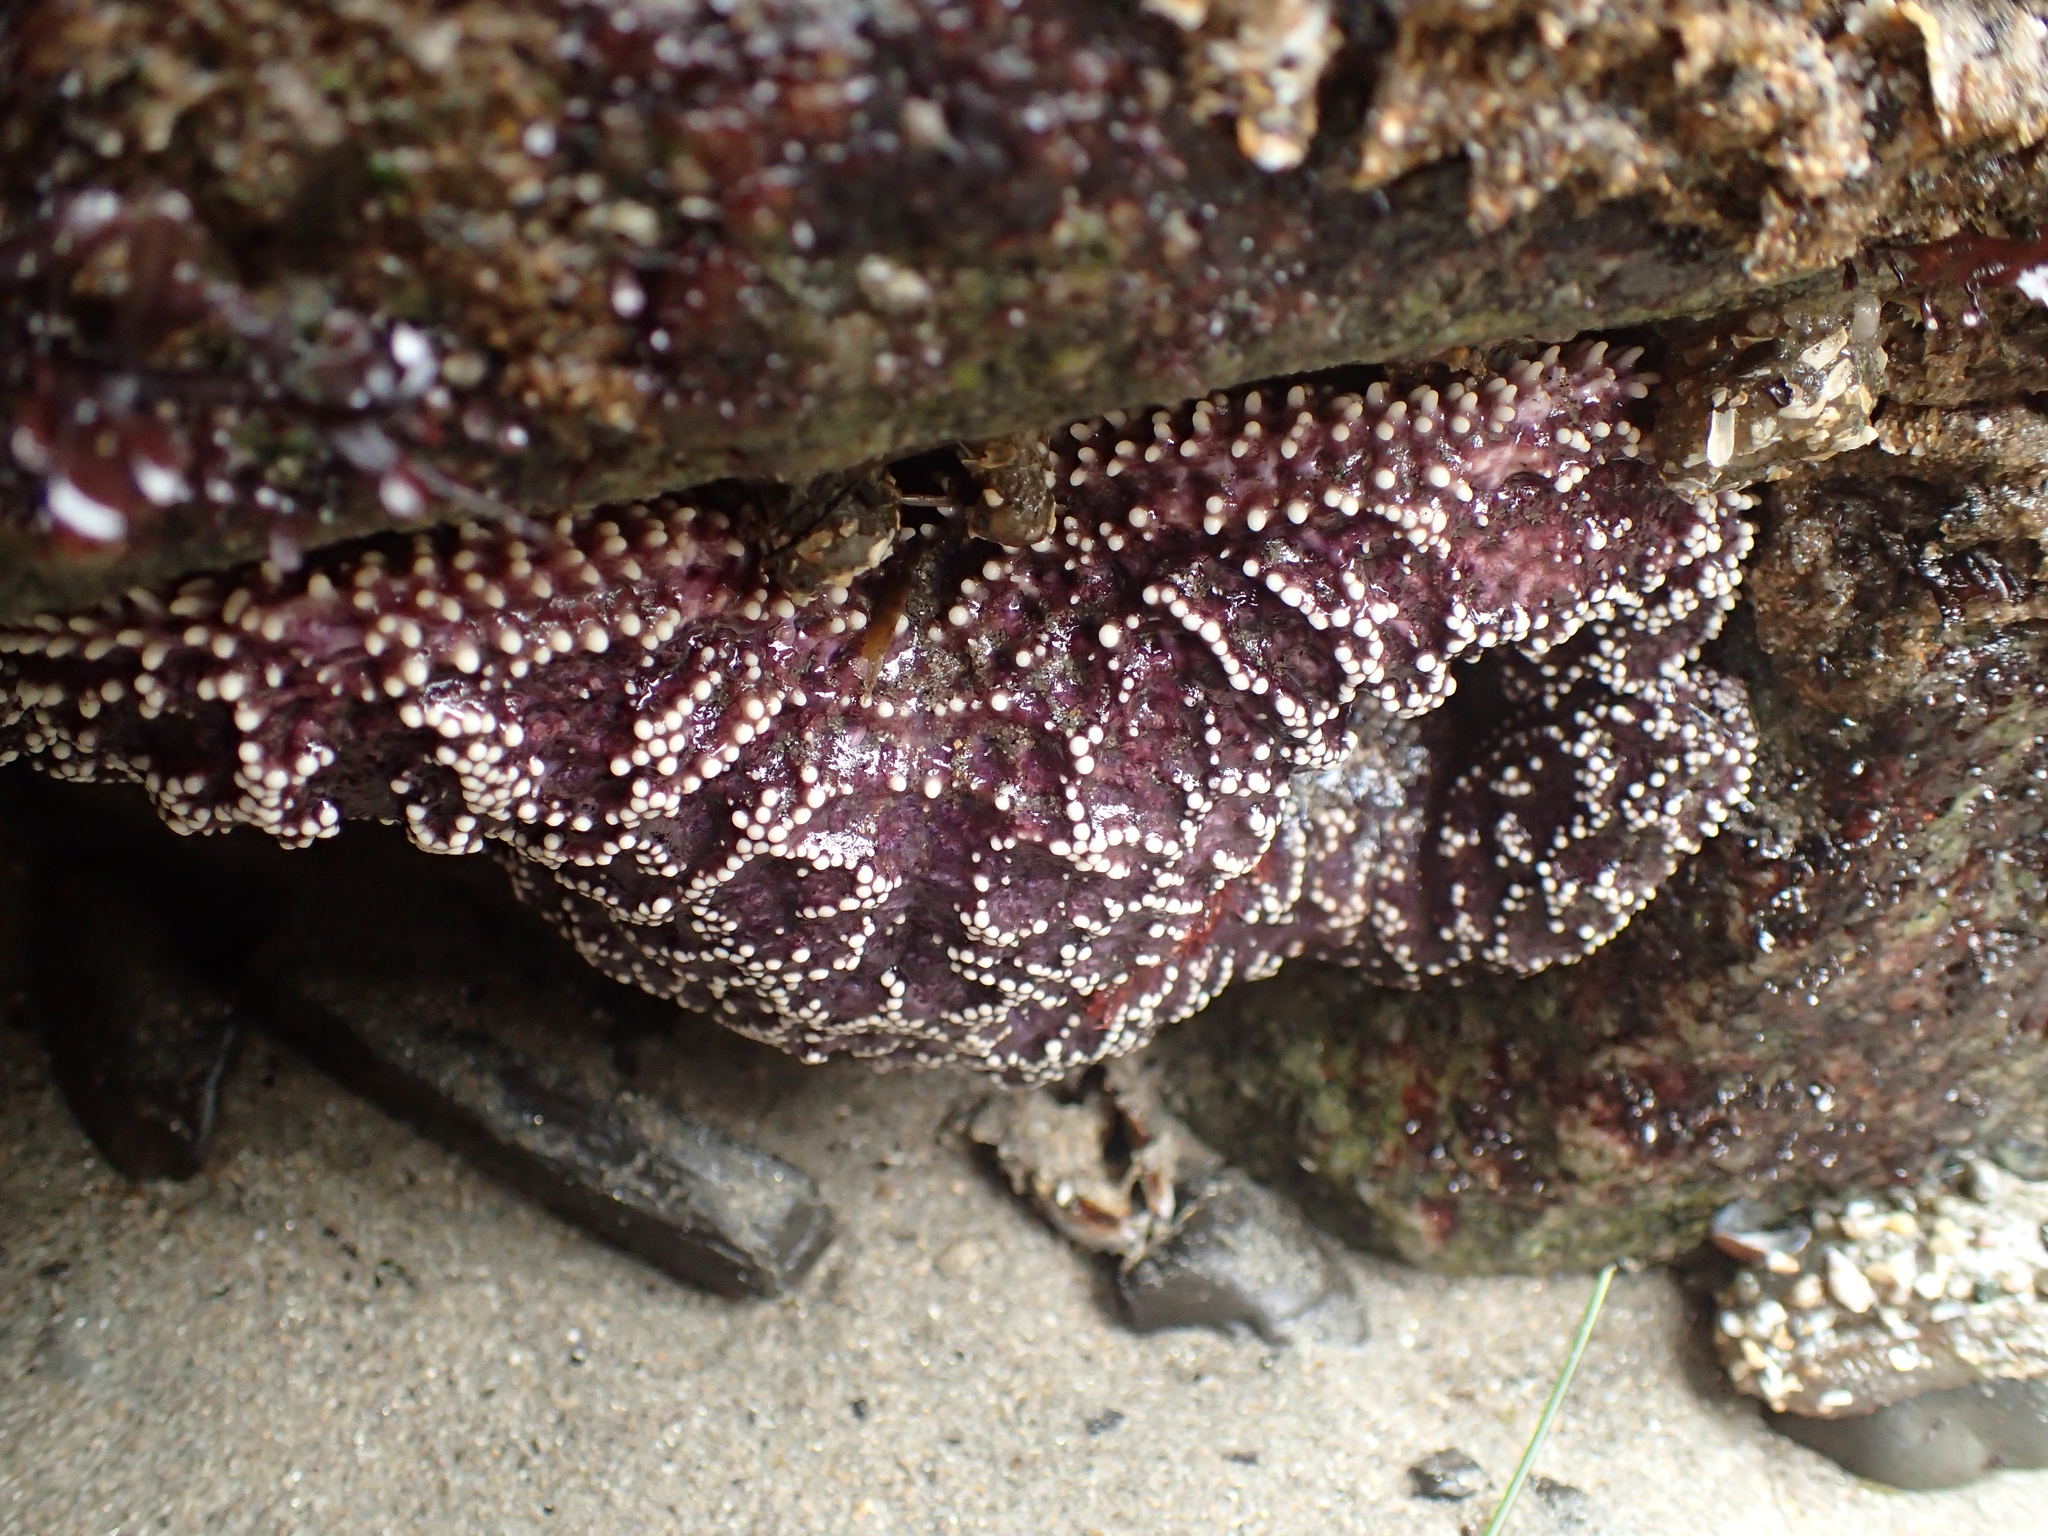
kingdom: Animalia
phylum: Echinodermata
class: Asteroidea
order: Forcipulatida
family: Asteriidae
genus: Pisaster
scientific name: Pisaster ochraceus
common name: Ochre stars
